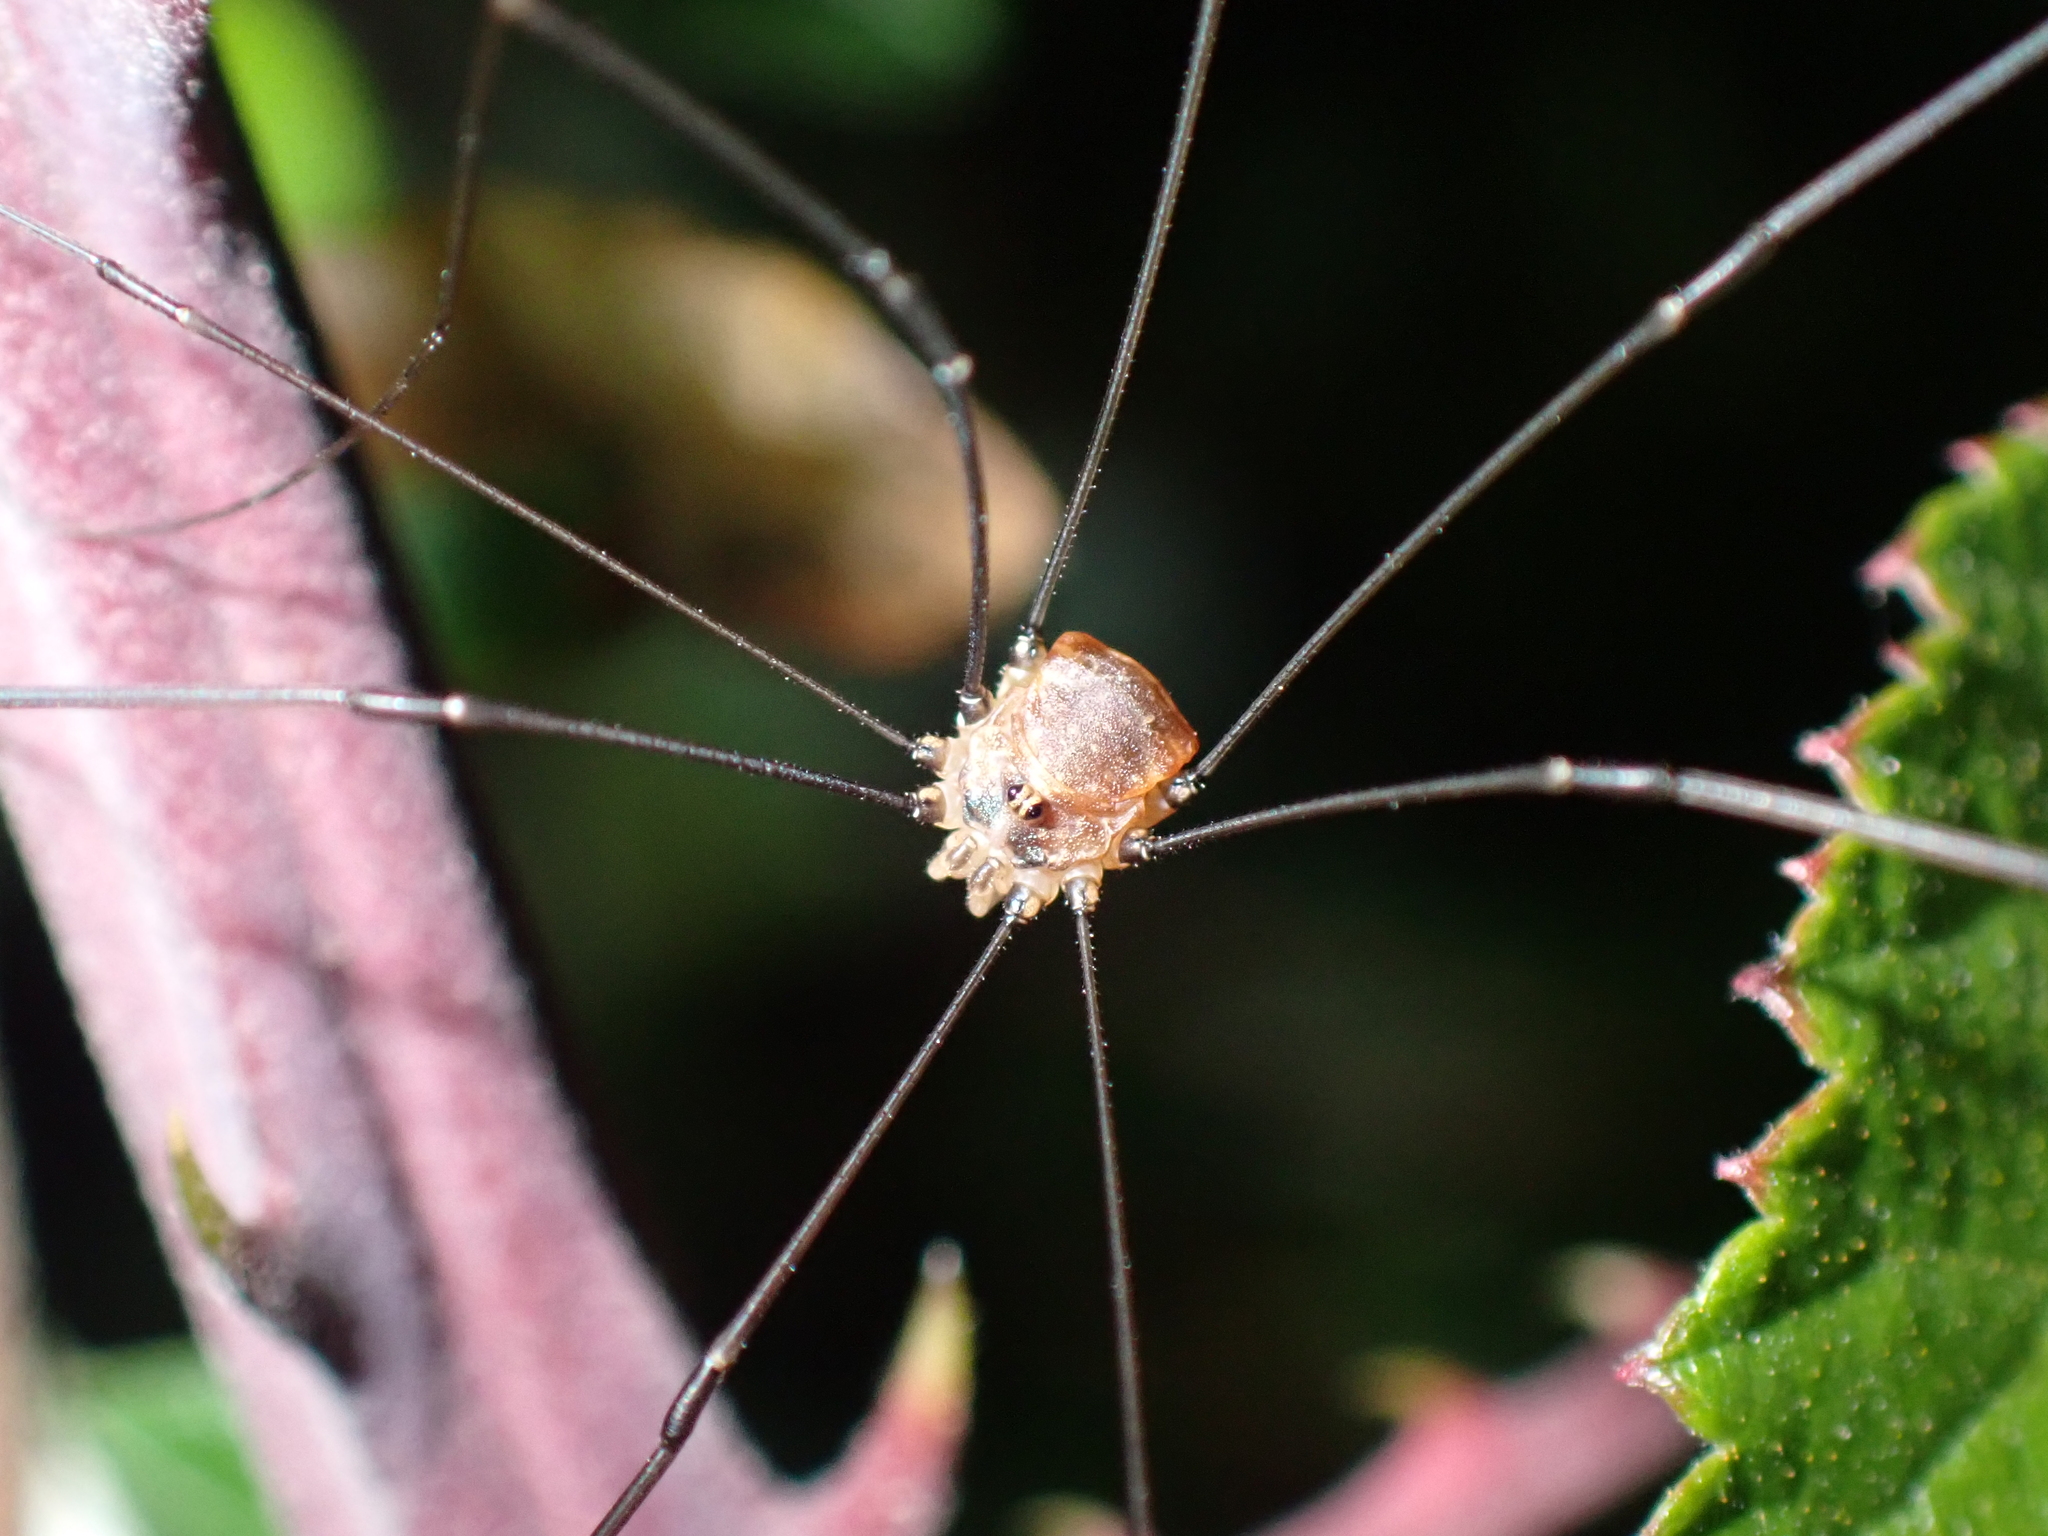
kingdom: Animalia
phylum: Arthropoda
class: Arachnida
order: Opiliones
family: Sclerosomatidae
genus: Leiobunum
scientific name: Leiobunum blackwalli
